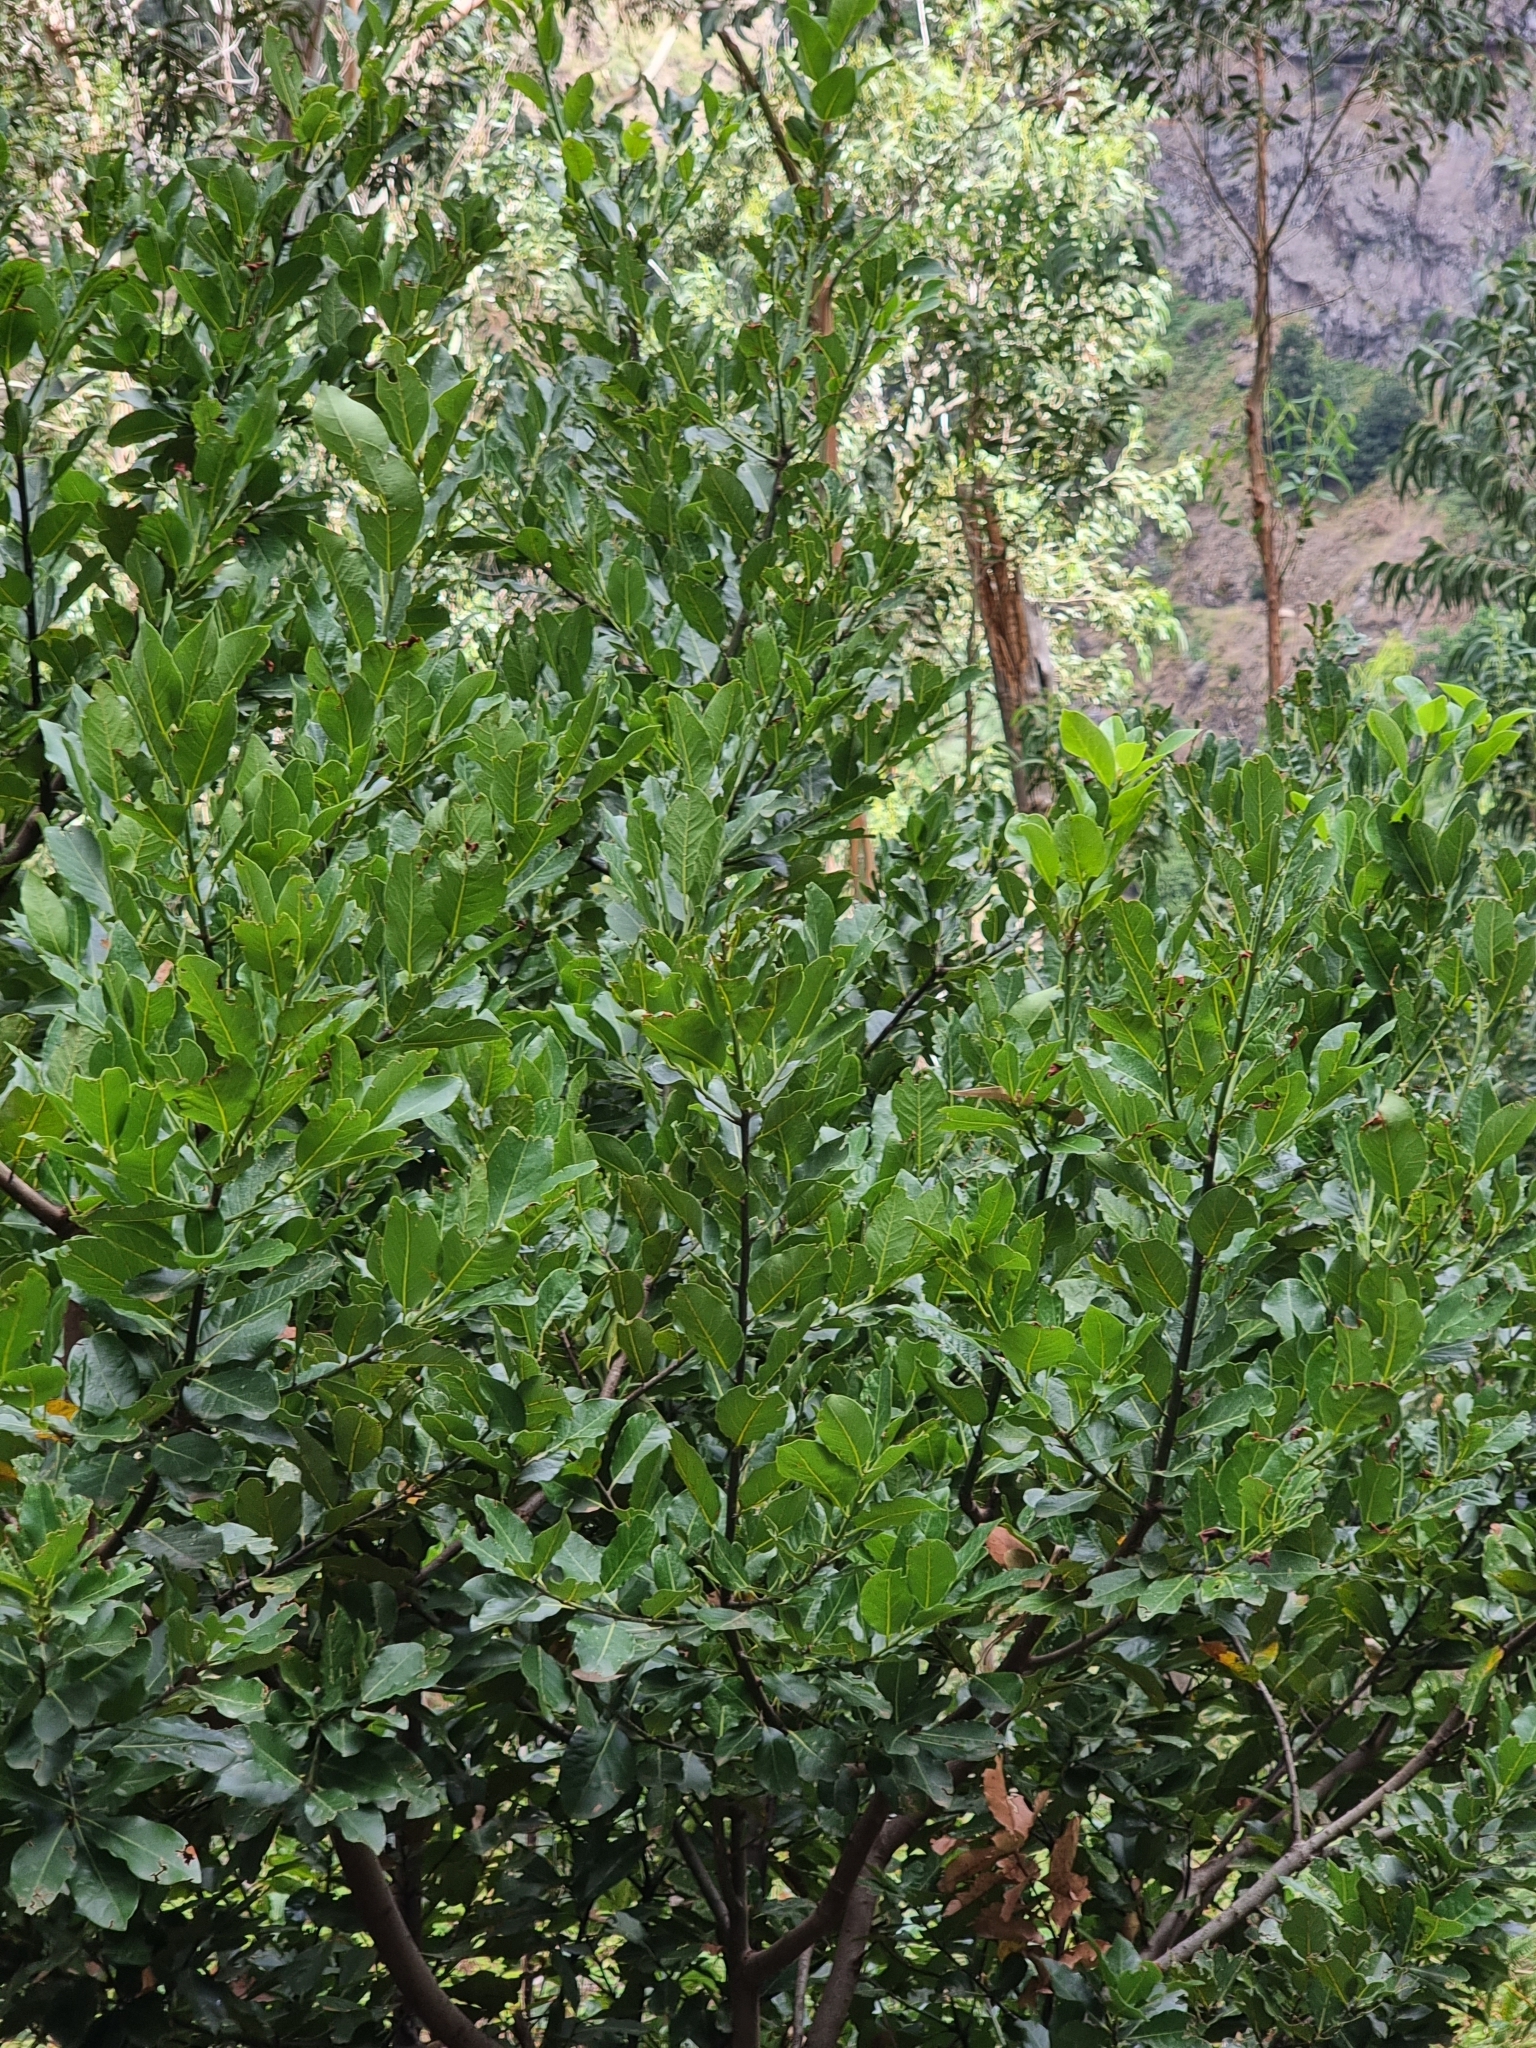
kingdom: Plantae
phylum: Tracheophyta
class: Magnoliopsida
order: Laurales
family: Lauraceae
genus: Laurus
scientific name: Laurus novocanariensis
